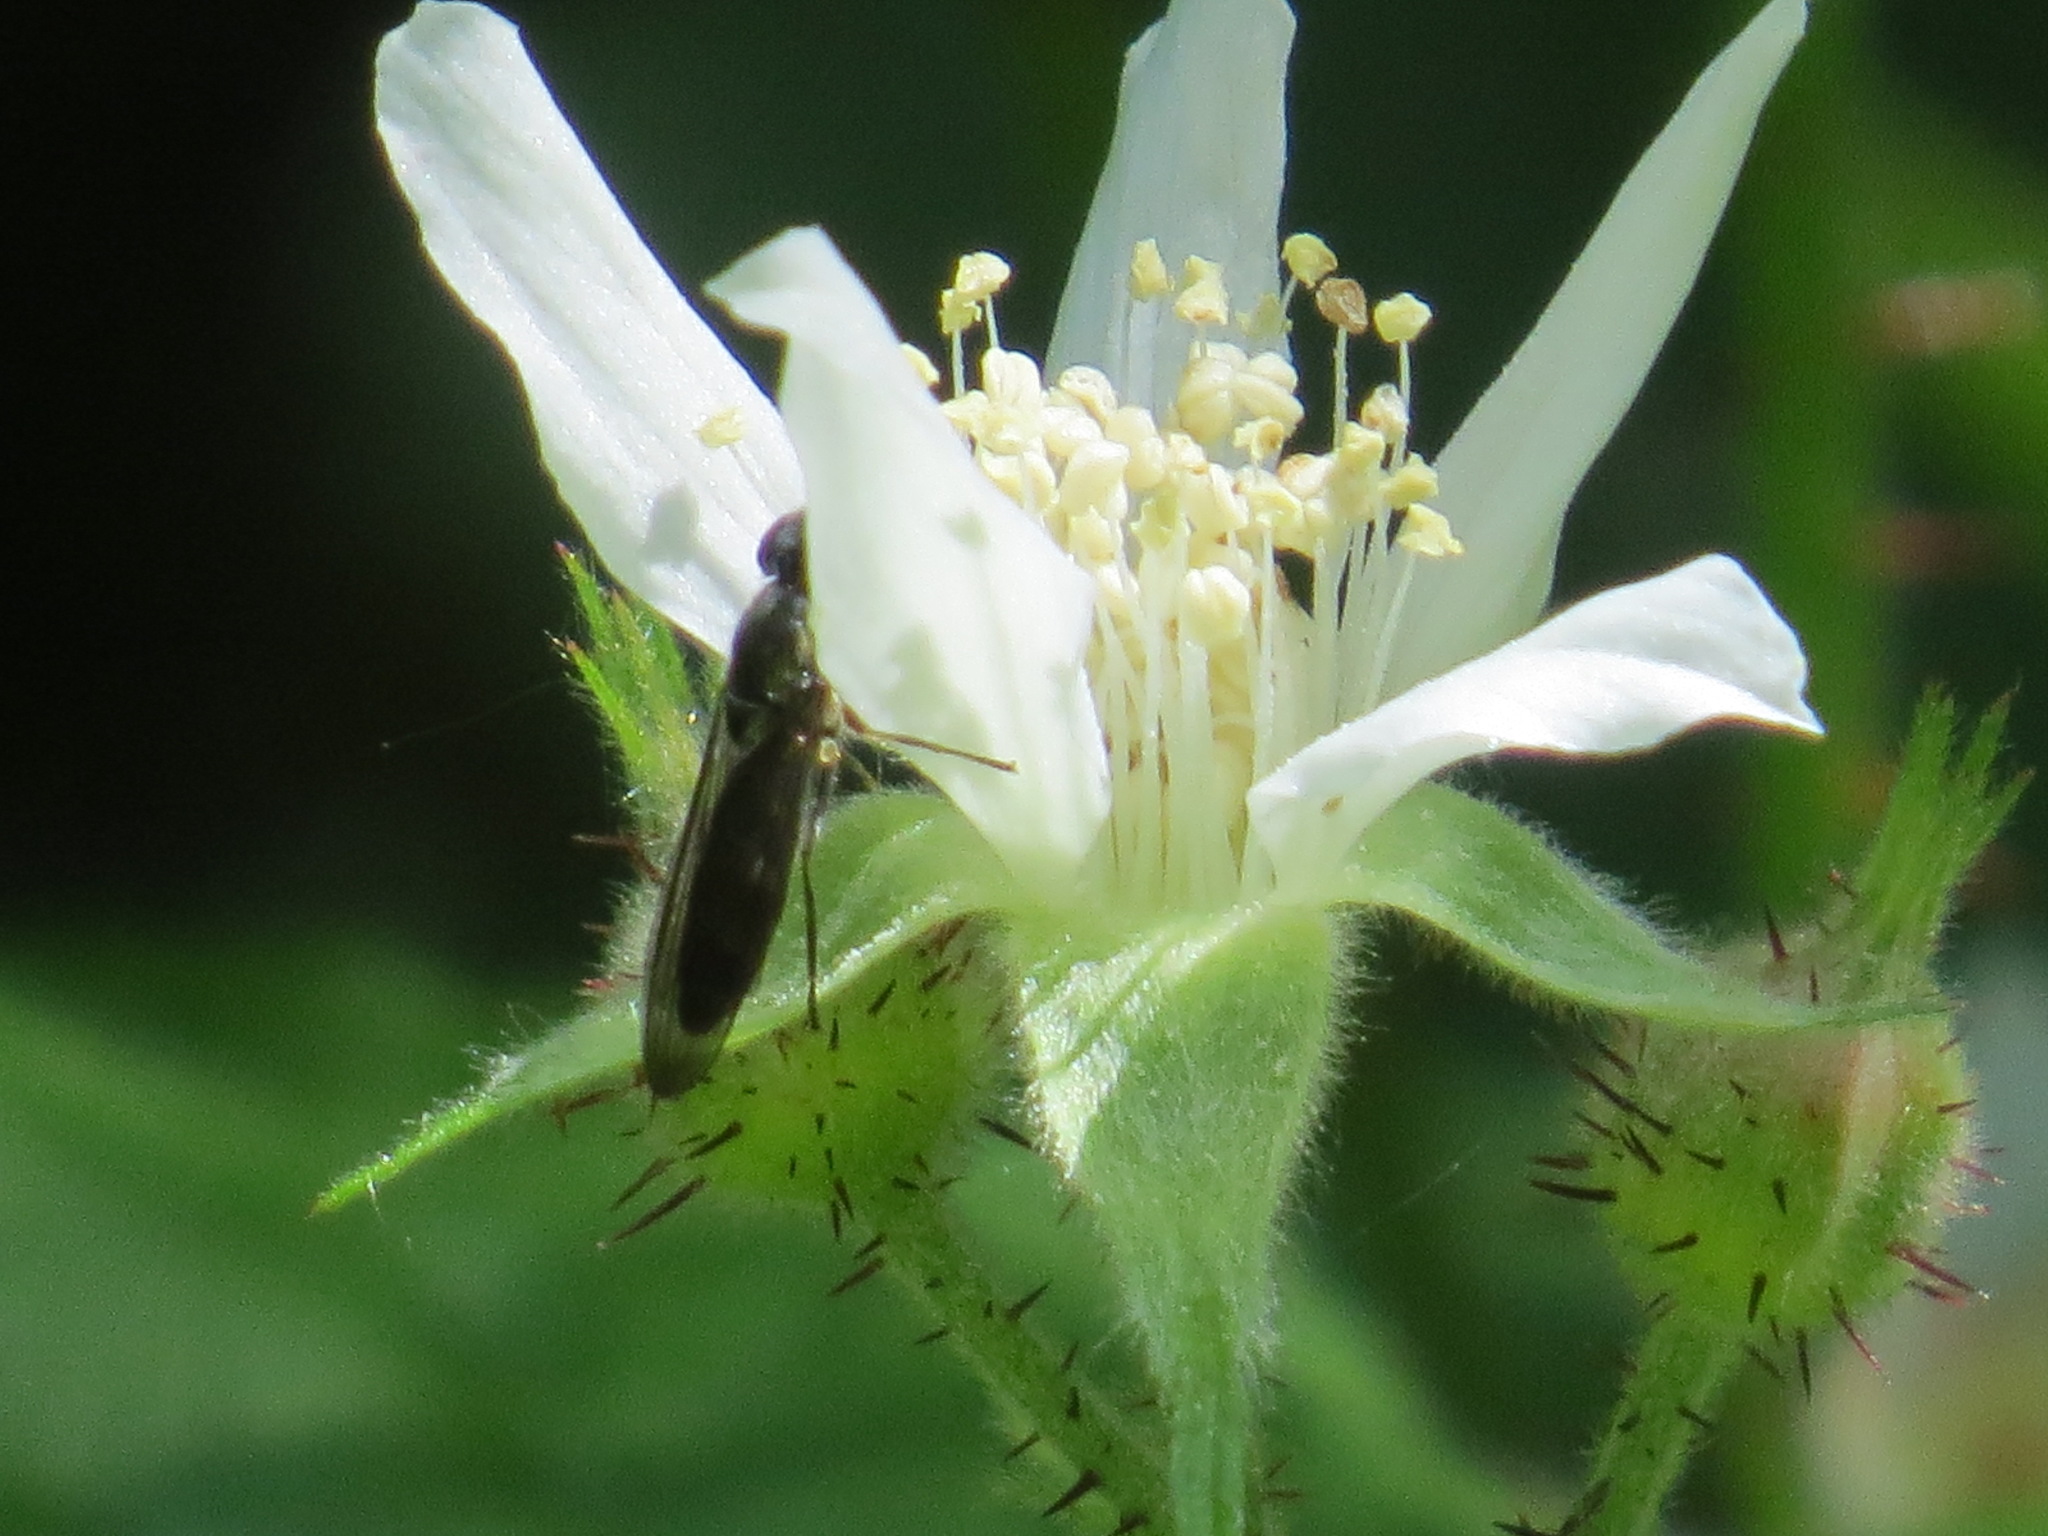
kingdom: Animalia
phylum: Arthropoda
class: Insecta
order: Diptera
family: Syrphidae
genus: Platycheirus
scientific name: Platycheirus trichopus
